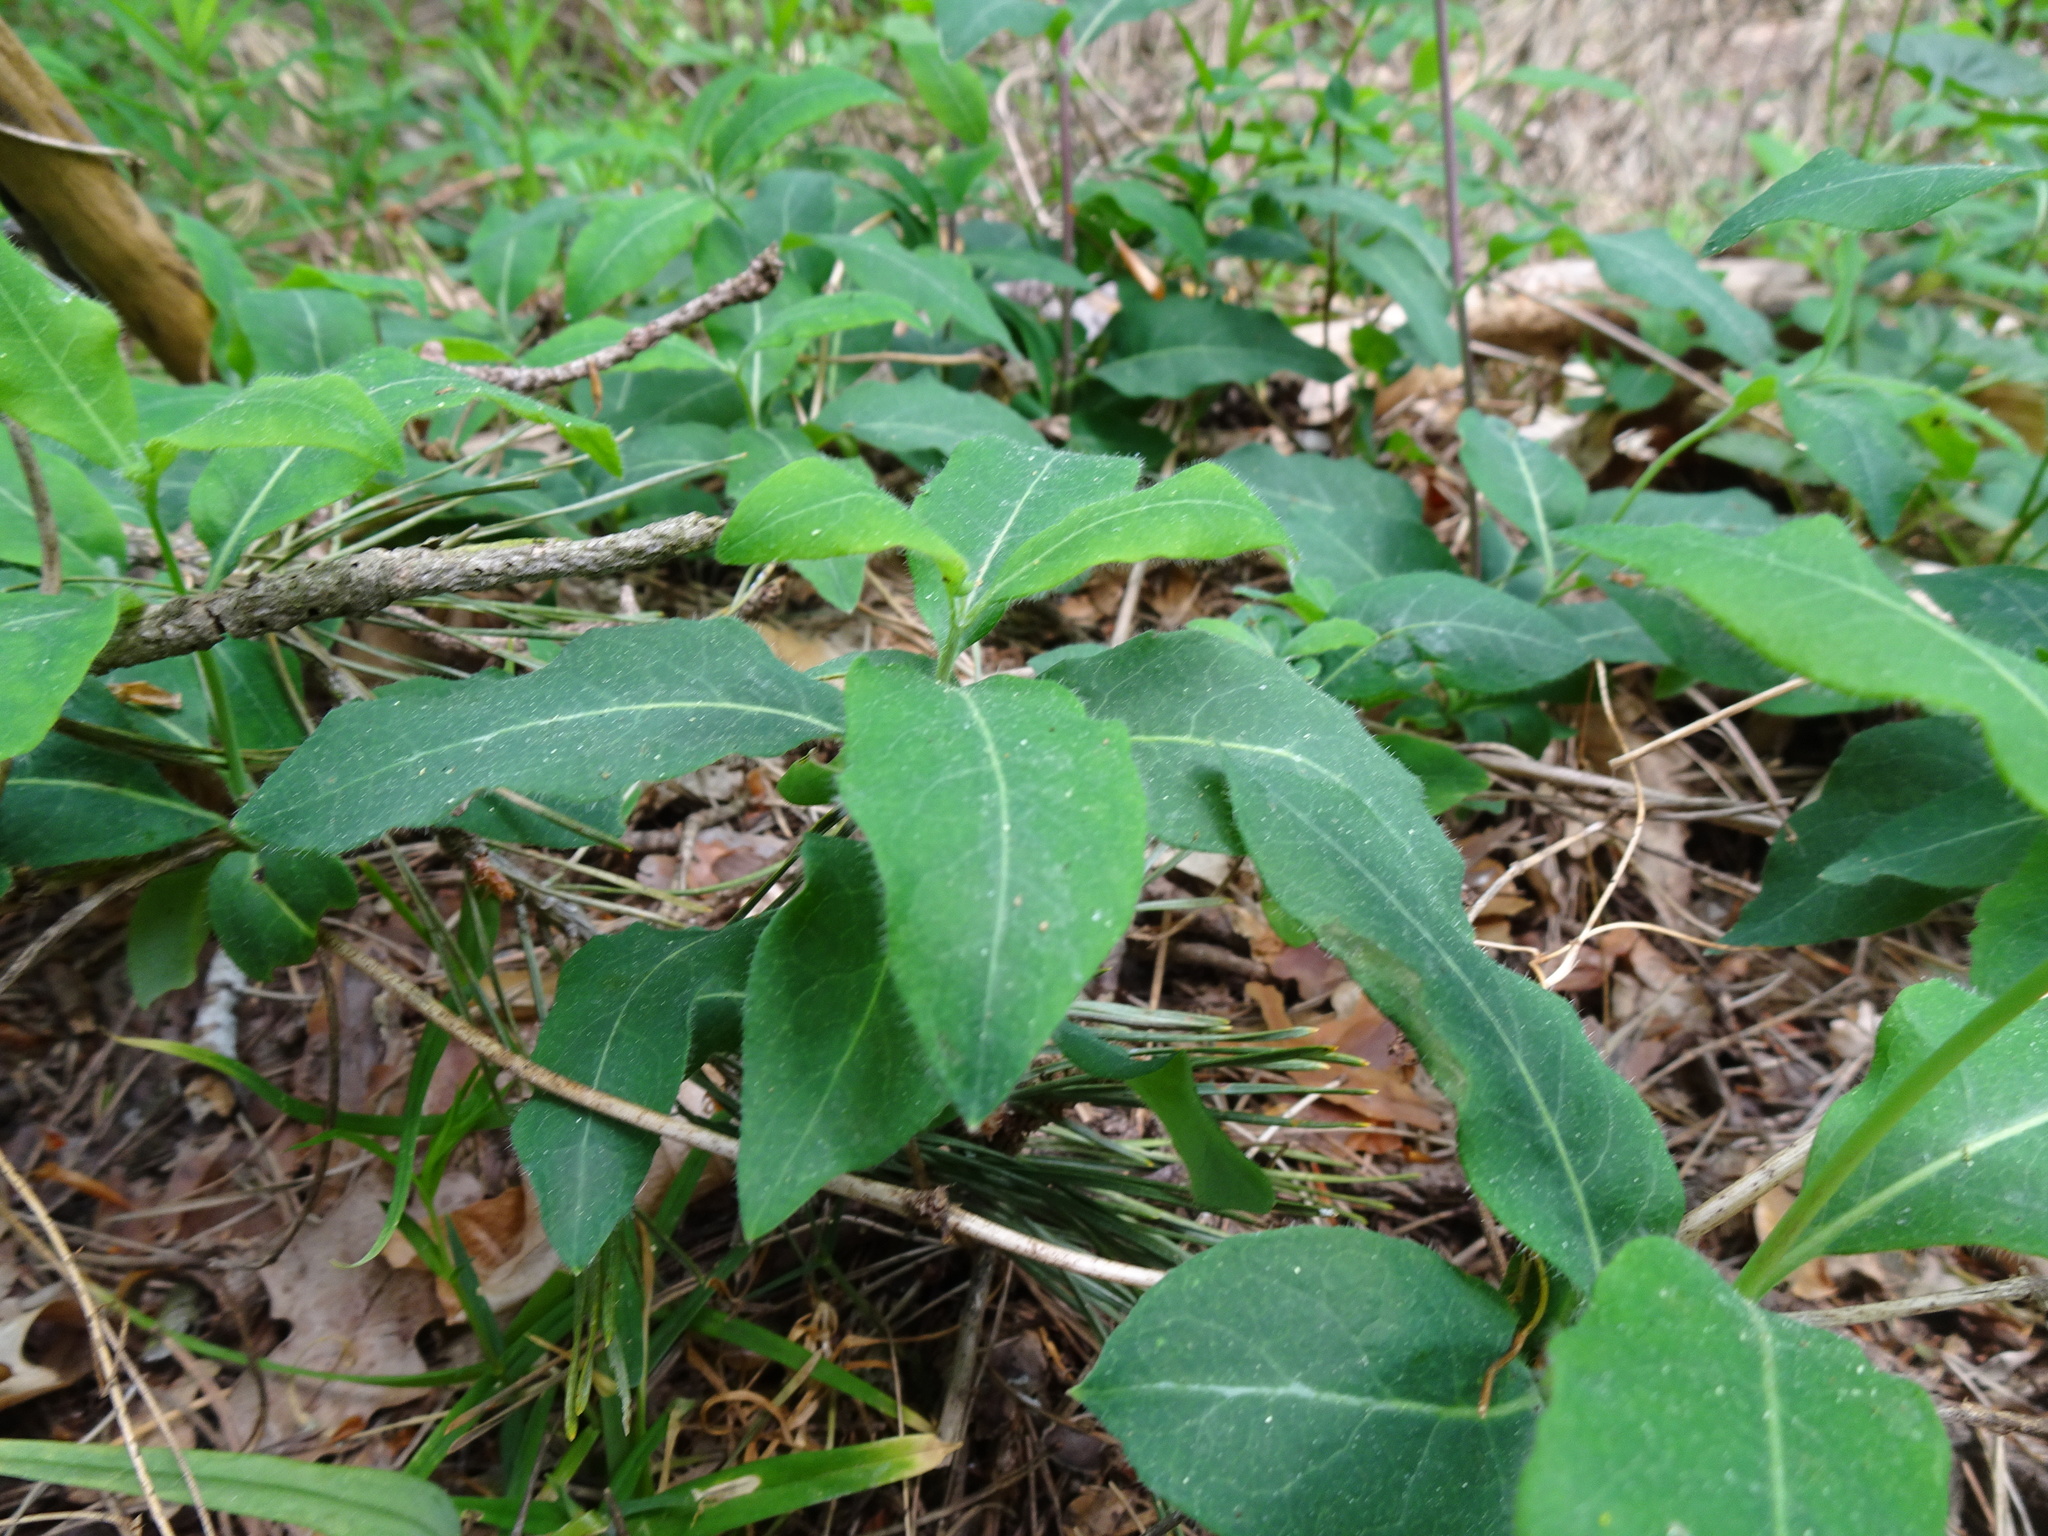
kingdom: Plantae
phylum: Tracheophyta
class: Magnoliopsida
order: Dipsacales
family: Caprifoliaceae
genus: Lonicera
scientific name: Lonicera periclymenum
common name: European honeysuckle
